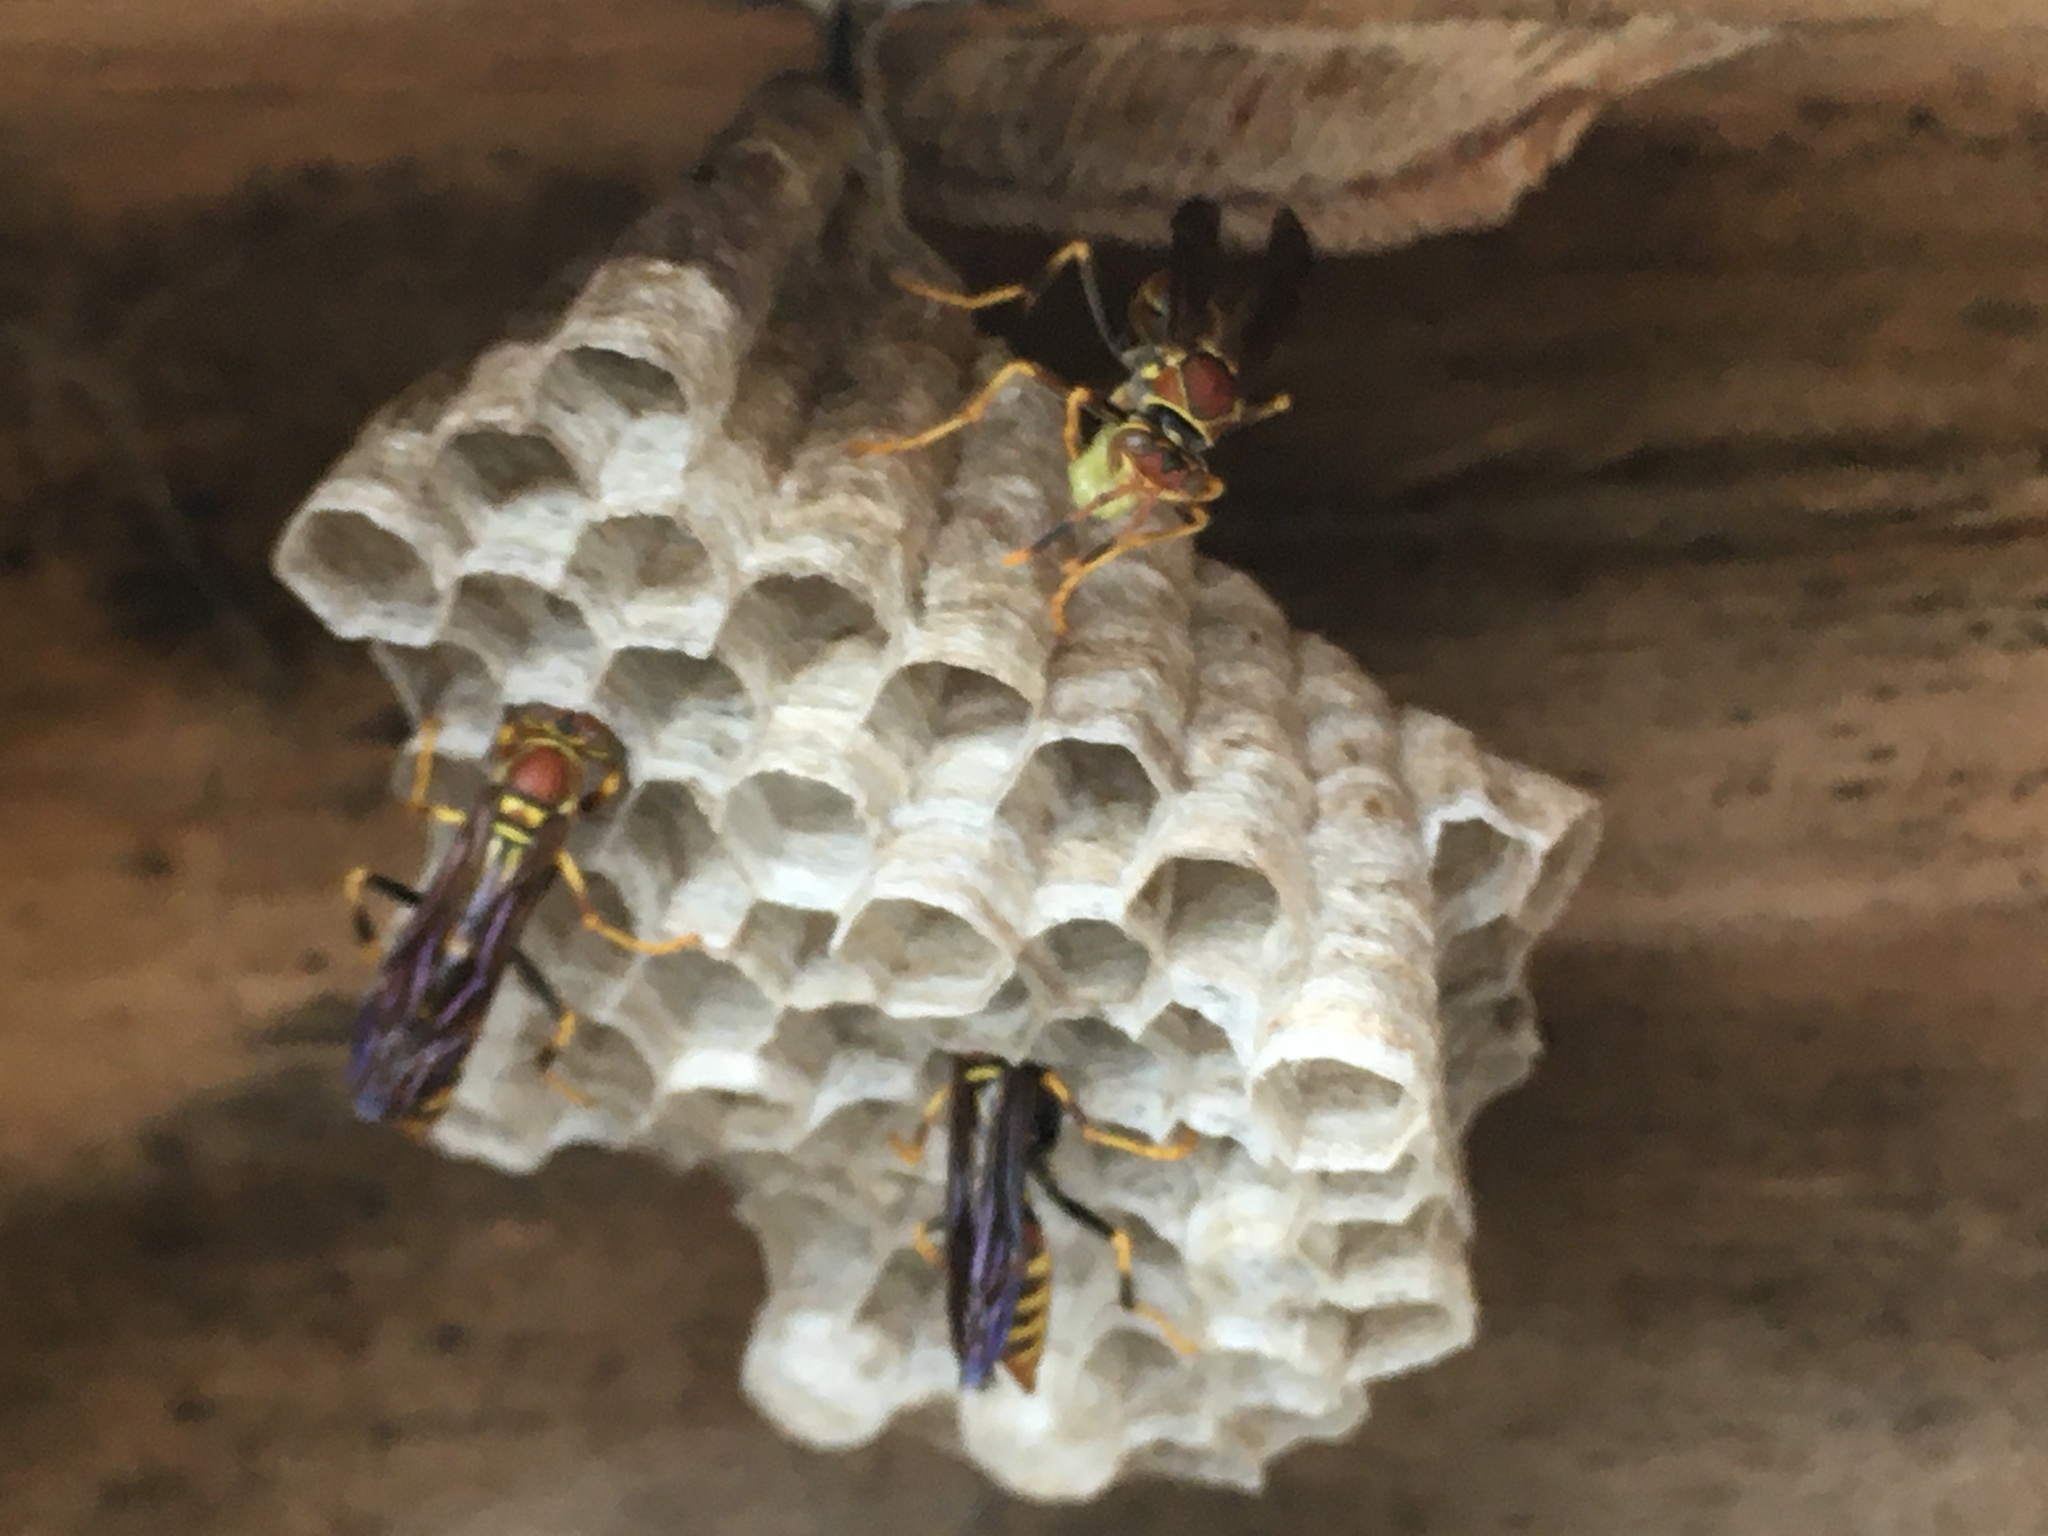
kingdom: Animalia
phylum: Arthropoda
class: Insecta
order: Hymenoptera
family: Eumenidae
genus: Polistes
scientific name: Polistes exclamans
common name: Paper wasp
